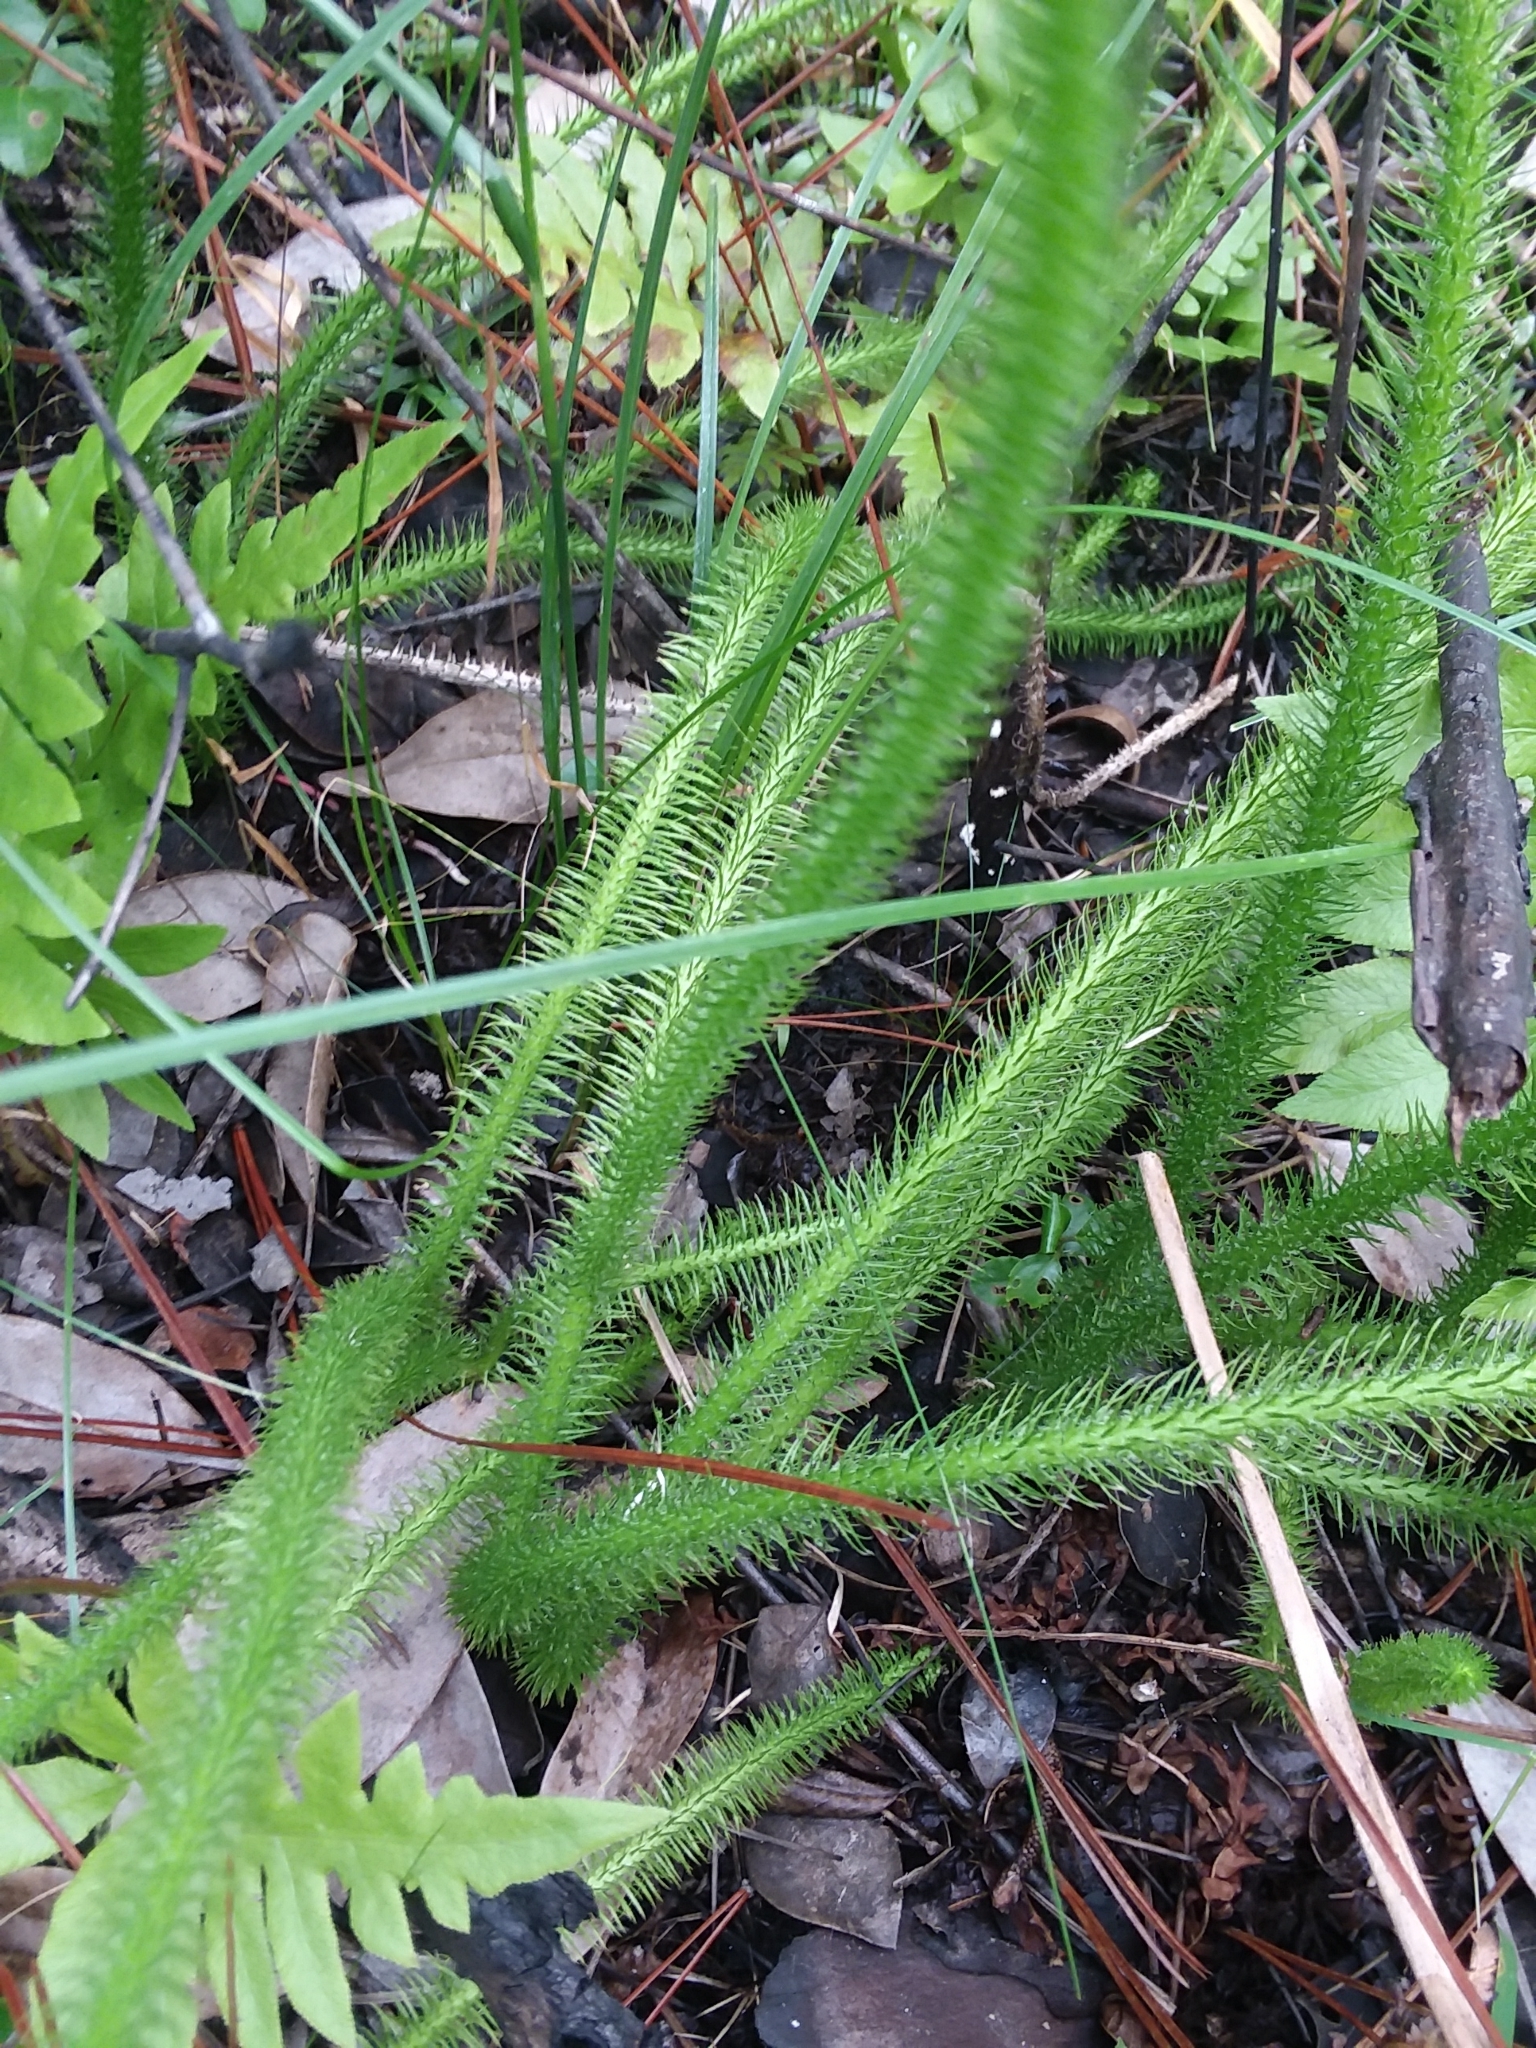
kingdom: Plantae
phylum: Tracheophyta
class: Lycopodiopsida
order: Lycopodiales
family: Lycopodiaceae
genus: Lycopodiella
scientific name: Lycopodiella alopecuroides
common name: Foxtail clubmoss
